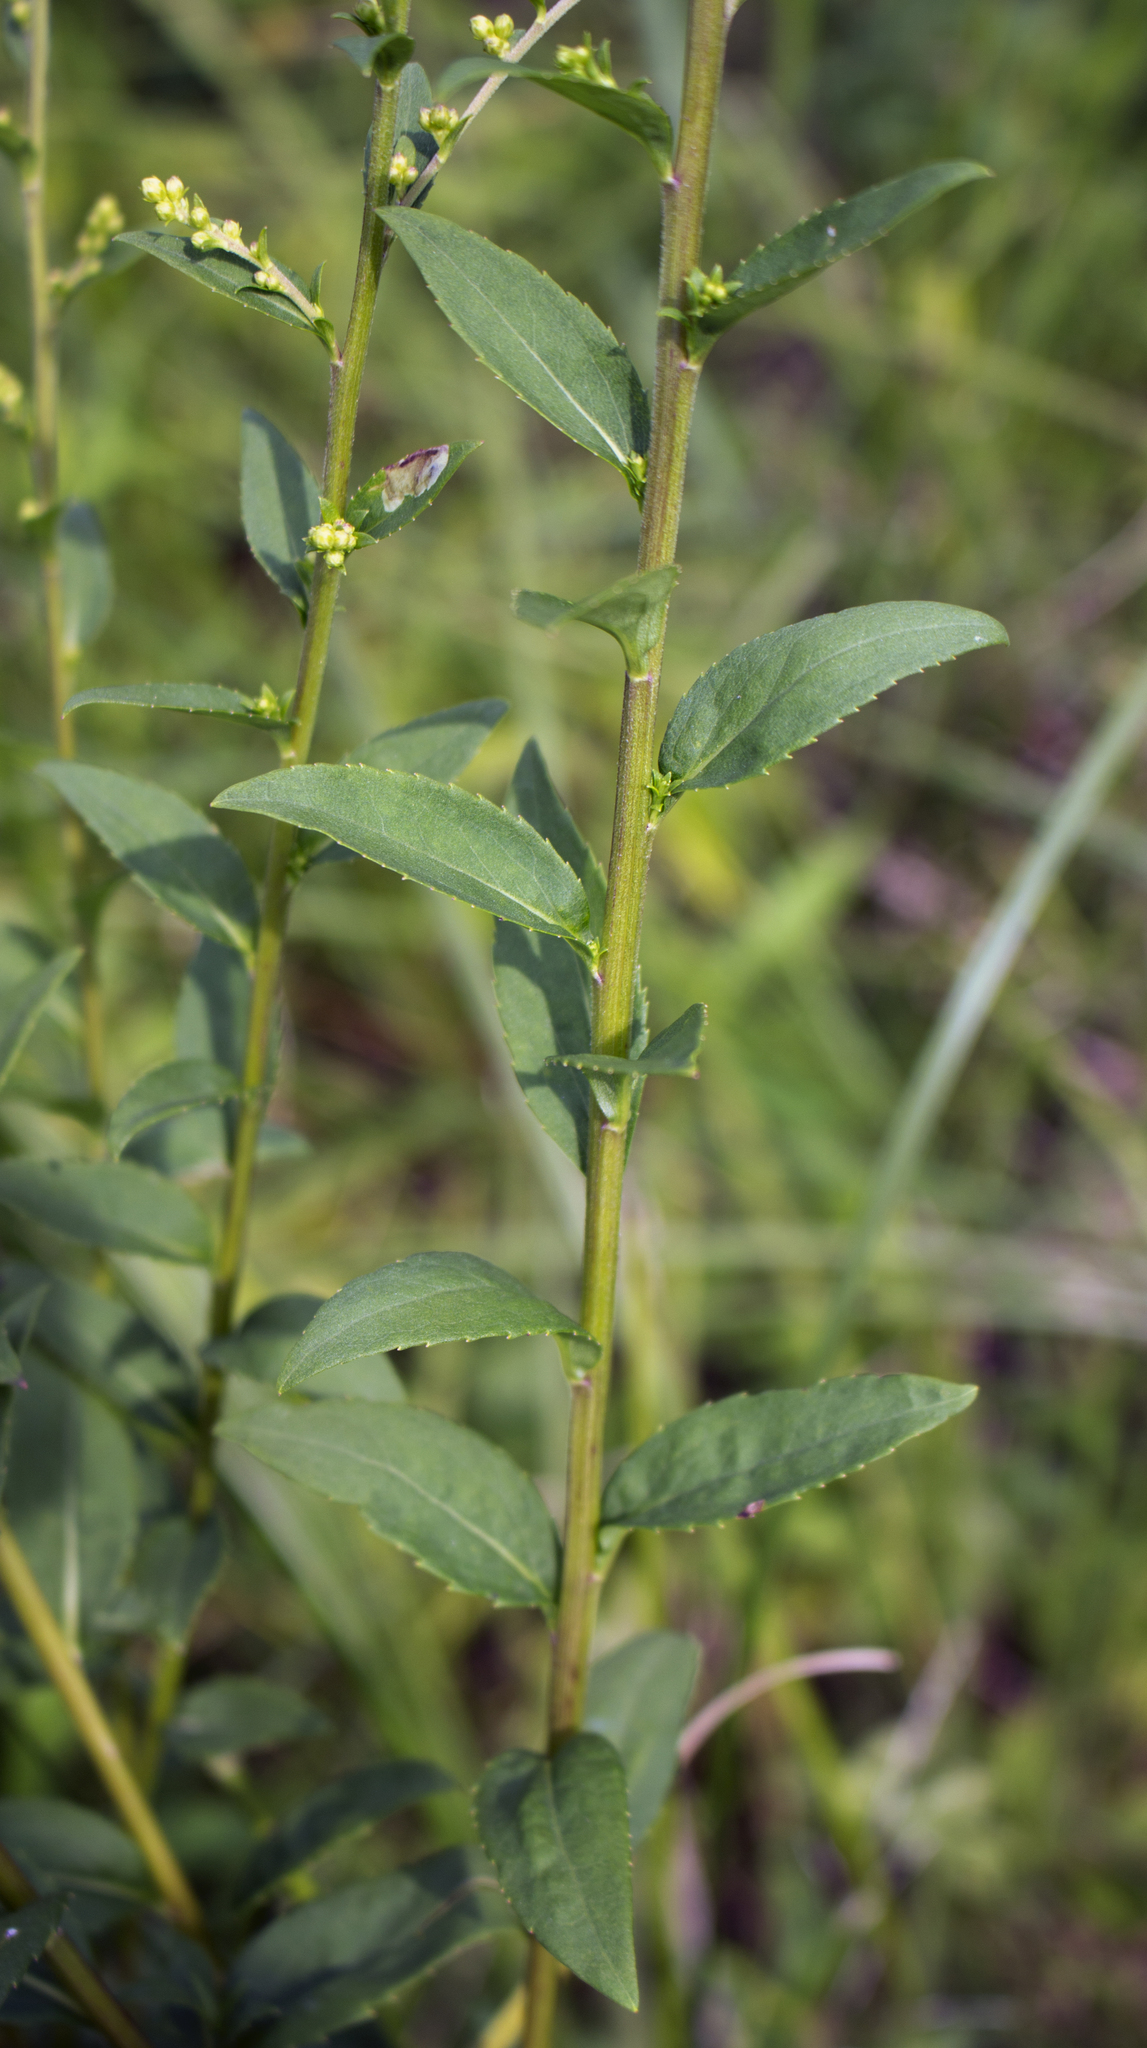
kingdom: Plantae
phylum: Tracheophyta
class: Magnoliopsida
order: Asterales
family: Asteraceae
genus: Solidago
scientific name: Solidago patula
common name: Rough-leaf goldenrod
